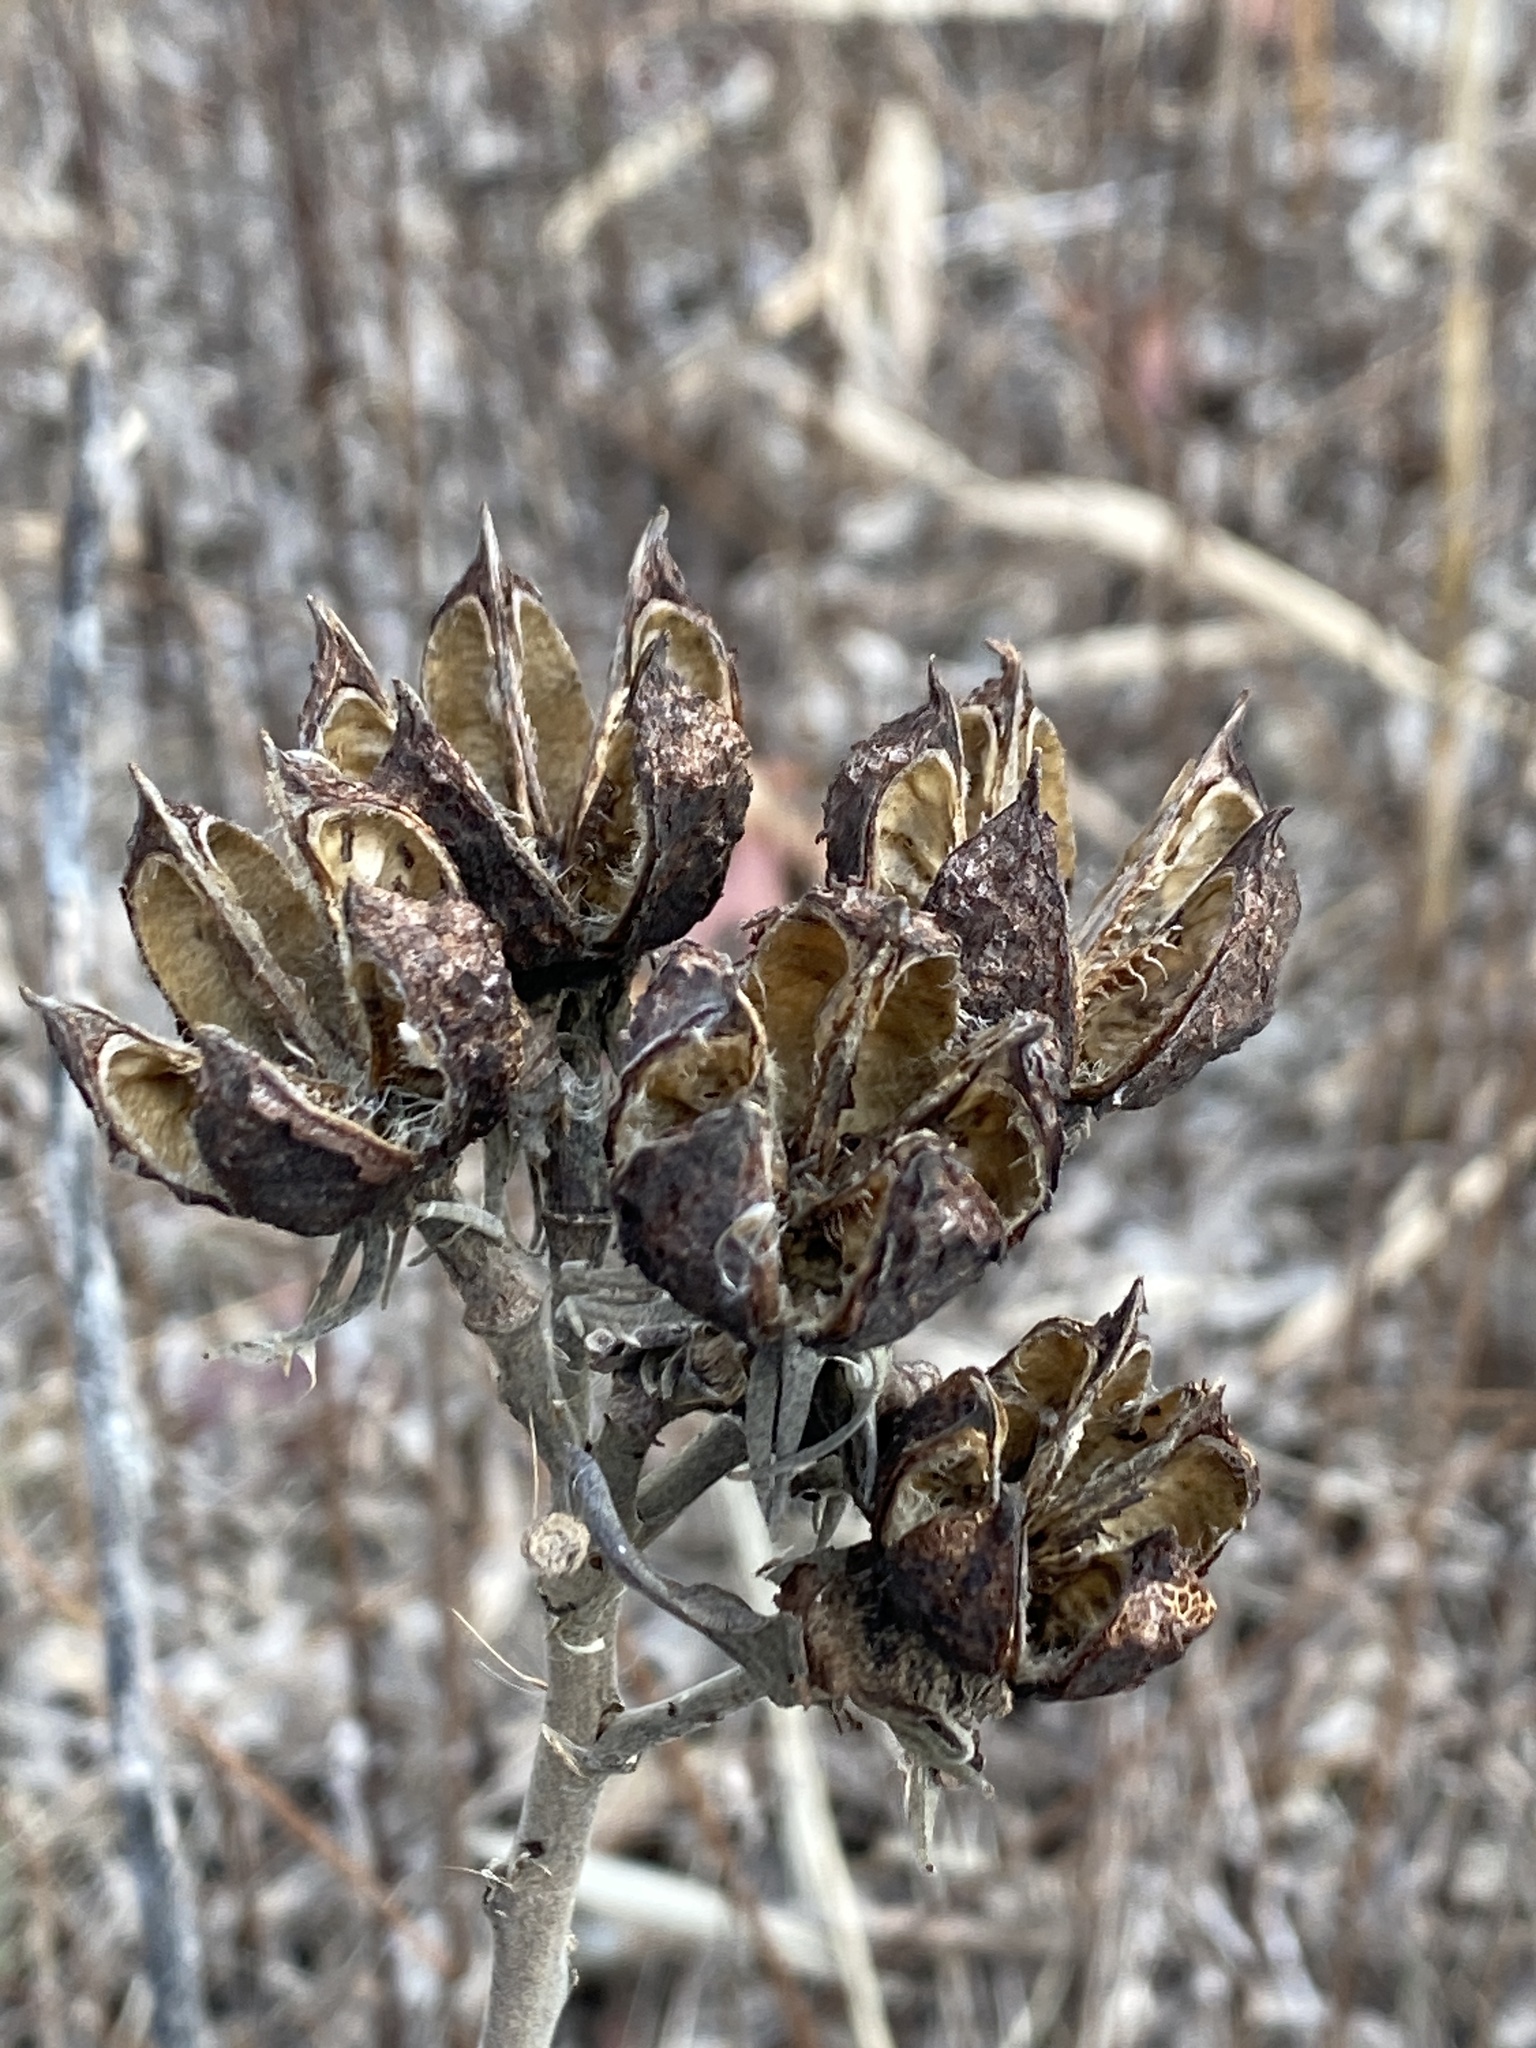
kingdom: Plantae
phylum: Tracheophyta
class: Magnoliopsida
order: Malvales
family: Malvaceae
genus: Hibiscus
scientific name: Hibiscus moscheutos
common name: Common rose-mallow
